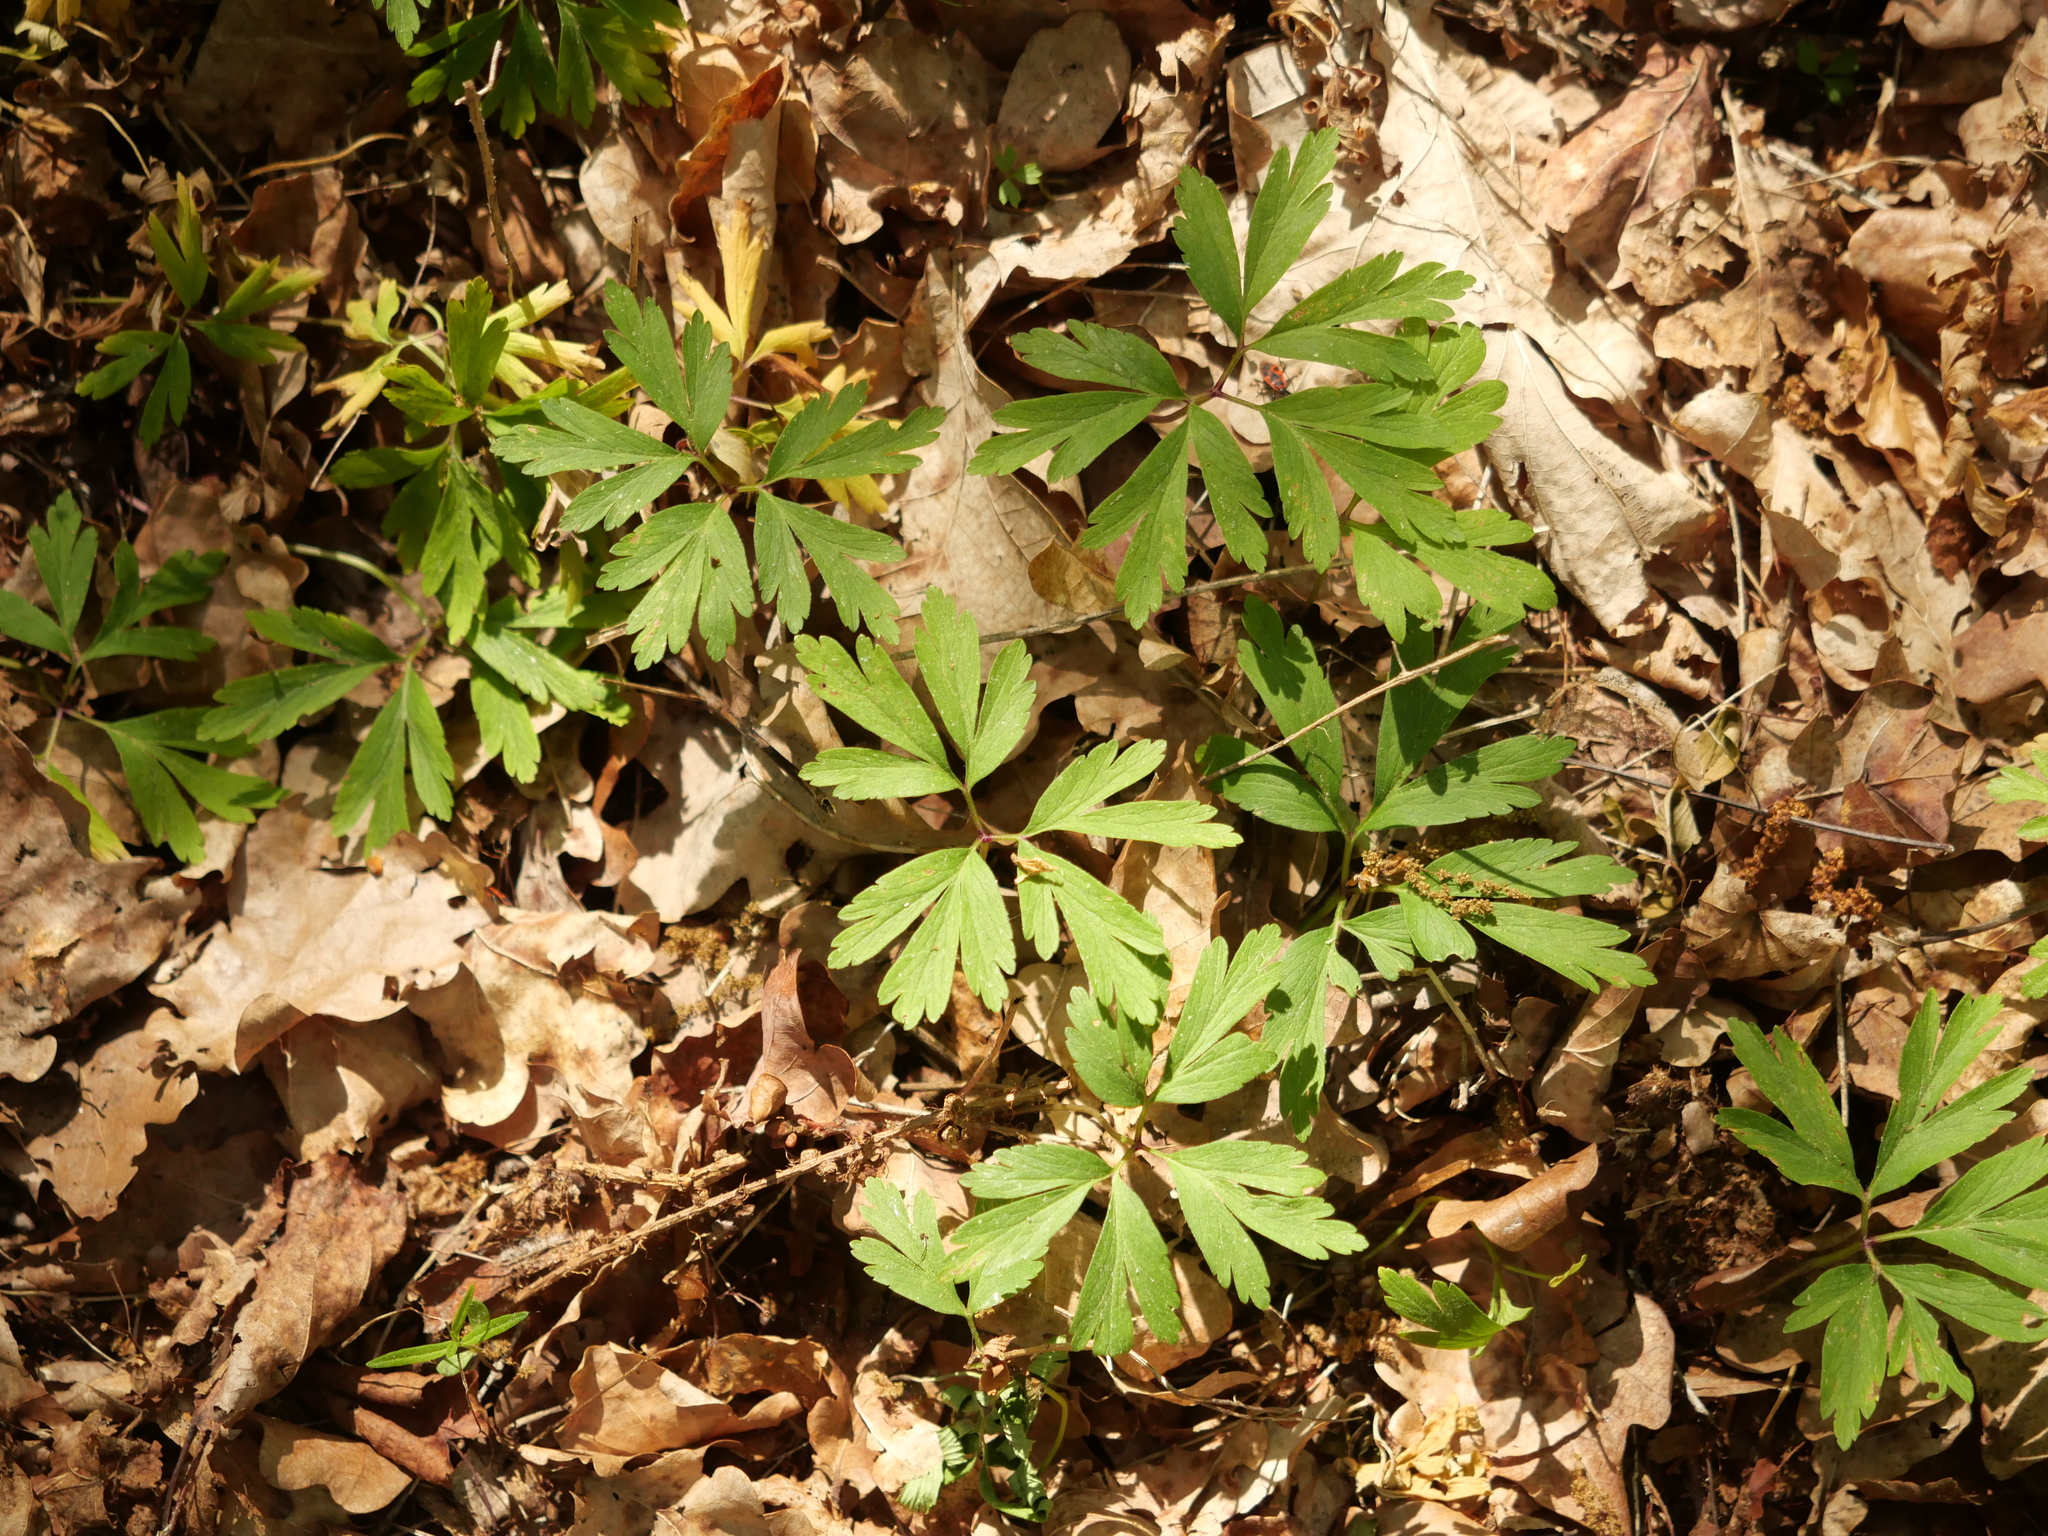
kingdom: Plantae
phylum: Tracheophyta
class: Magnoliopsida
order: Ranunculales
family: Ranunculaceae
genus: Anemone
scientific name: Anemone nemorosa
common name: Wood anemone
